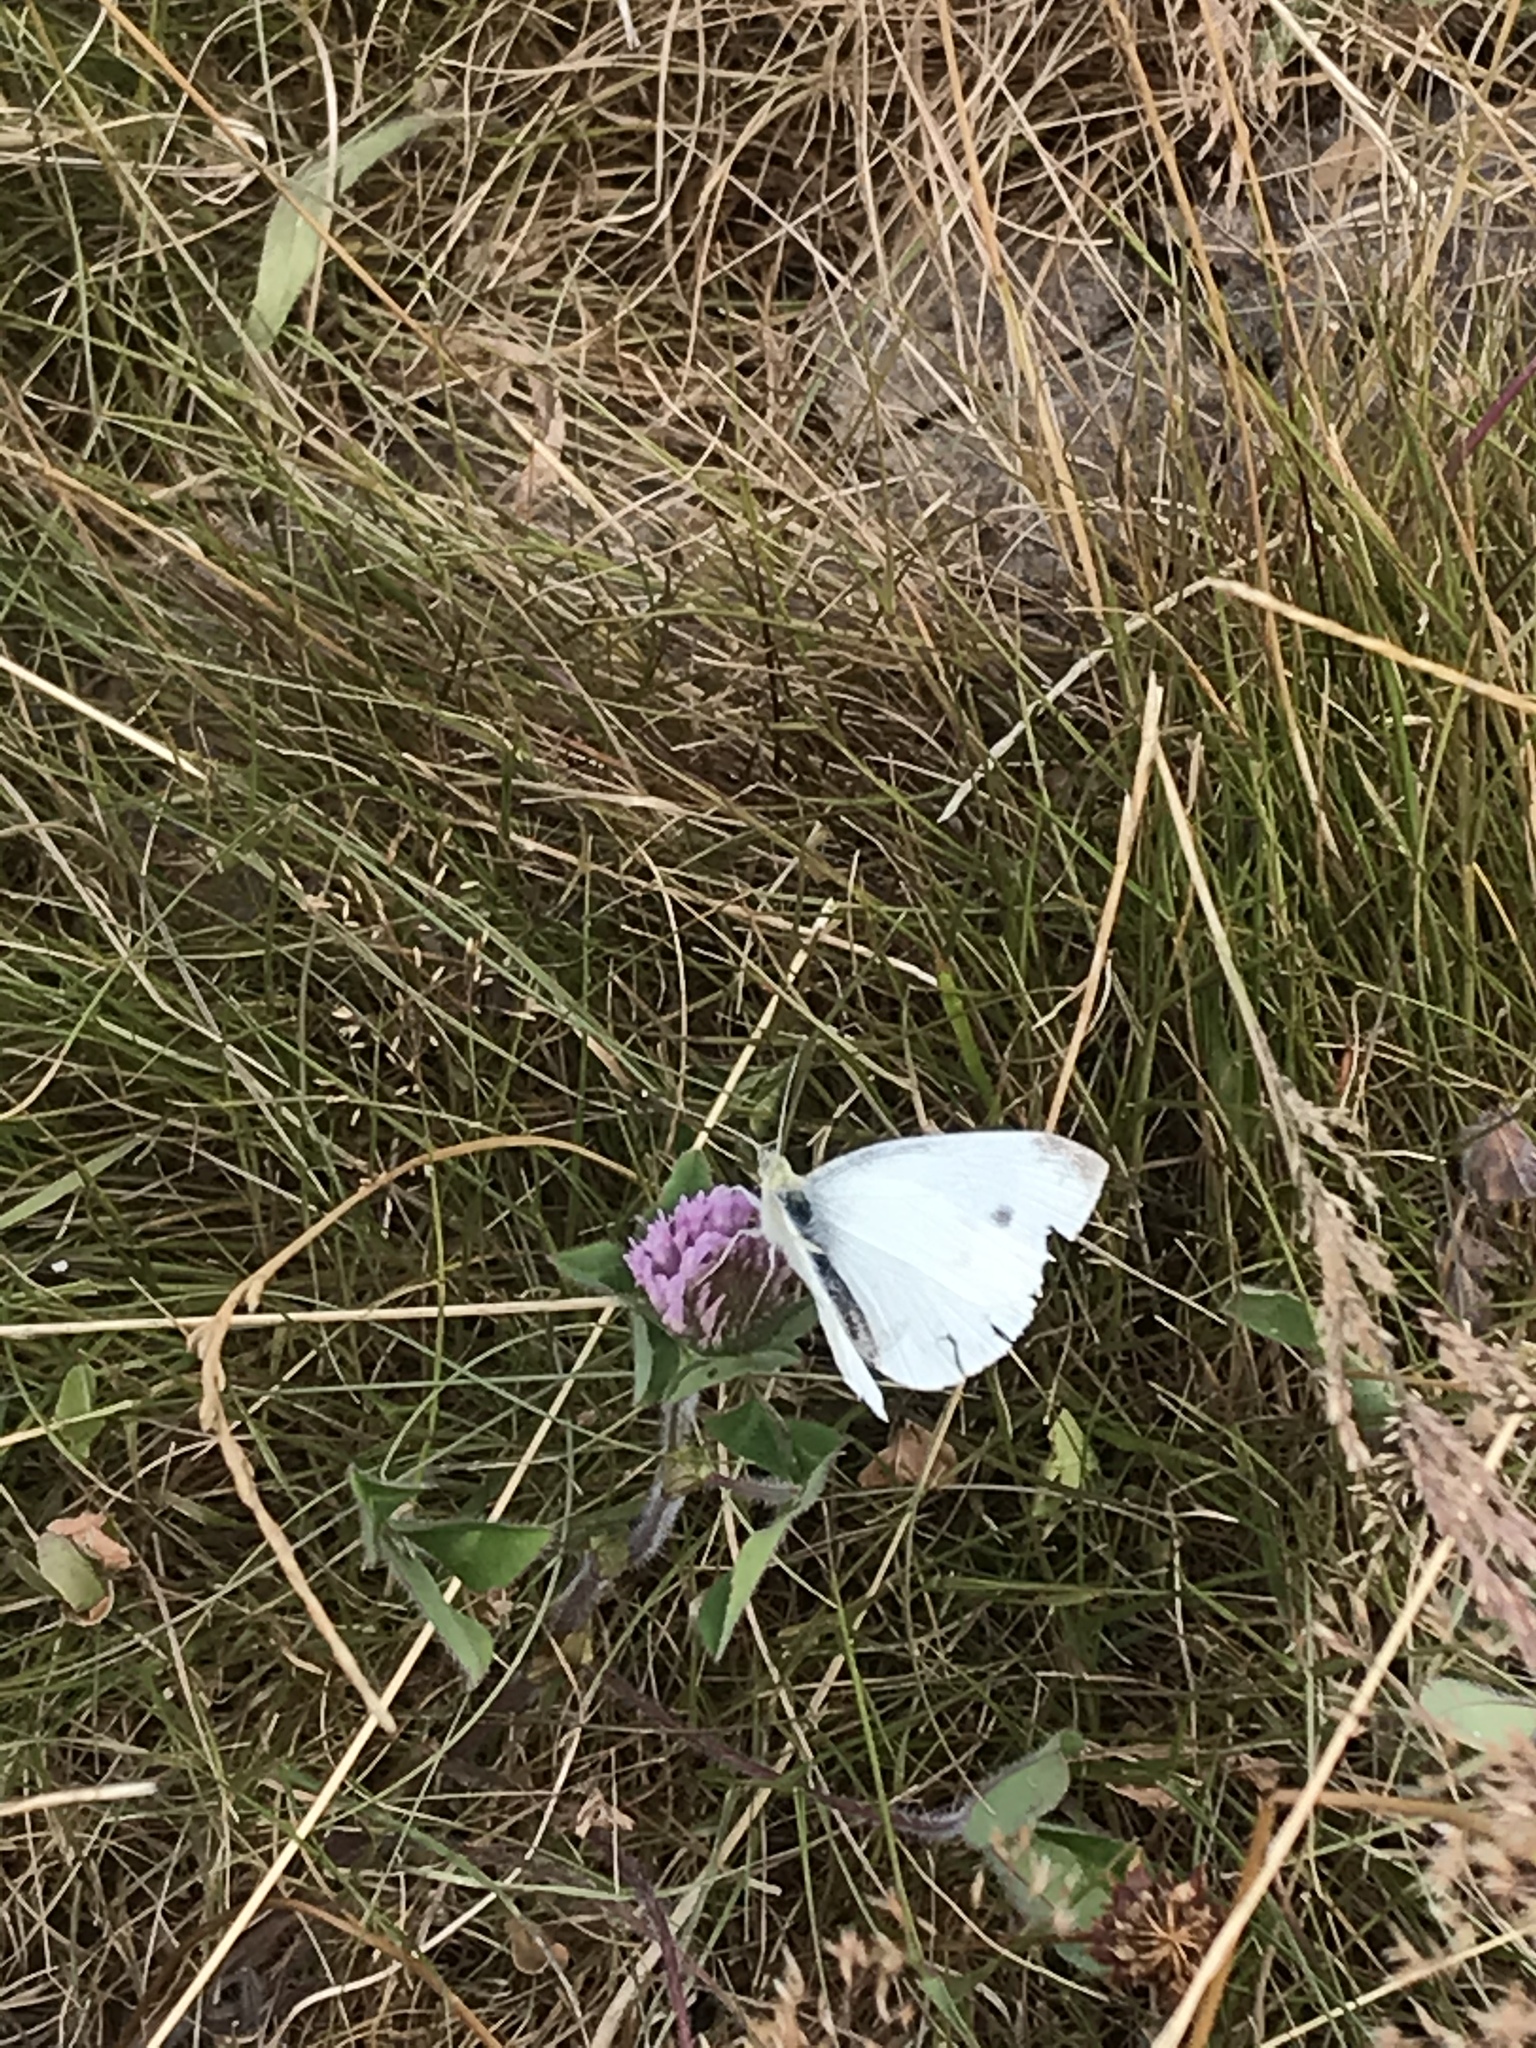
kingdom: Animalia
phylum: Arthropoda
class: Insecta
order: Lepidoptera
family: Pieridae
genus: Pieris
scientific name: Pieris rapae
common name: Small white
